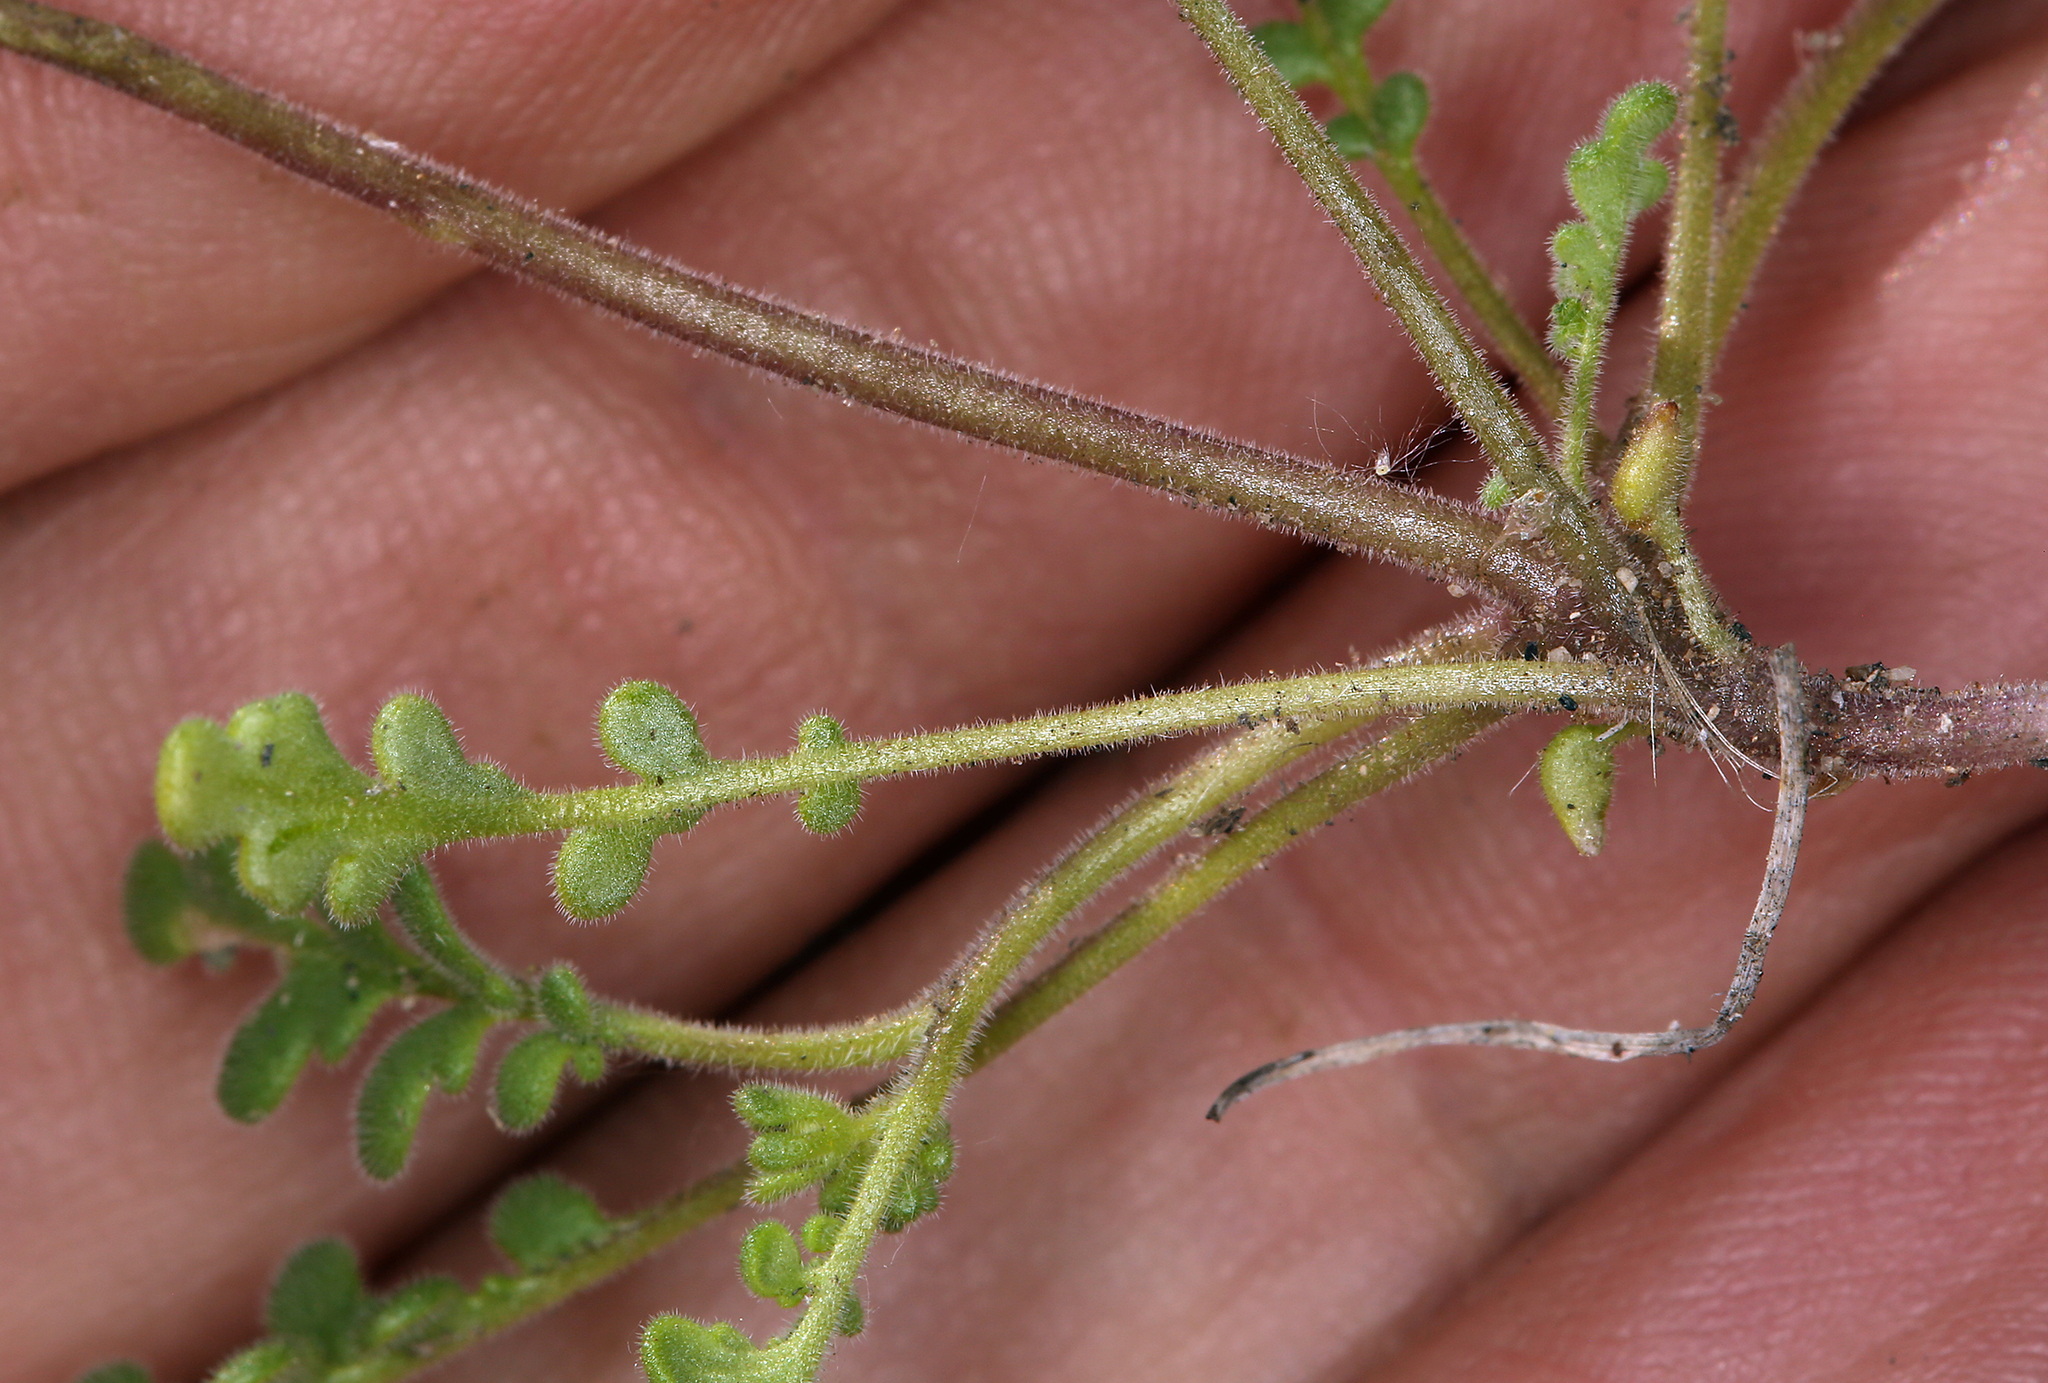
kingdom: Plantae
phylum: Tracheophyta
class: Magnoliopsida
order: Boraginales
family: Hydrophyllaceae
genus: Phacelia
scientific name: Phacelia fremontii
